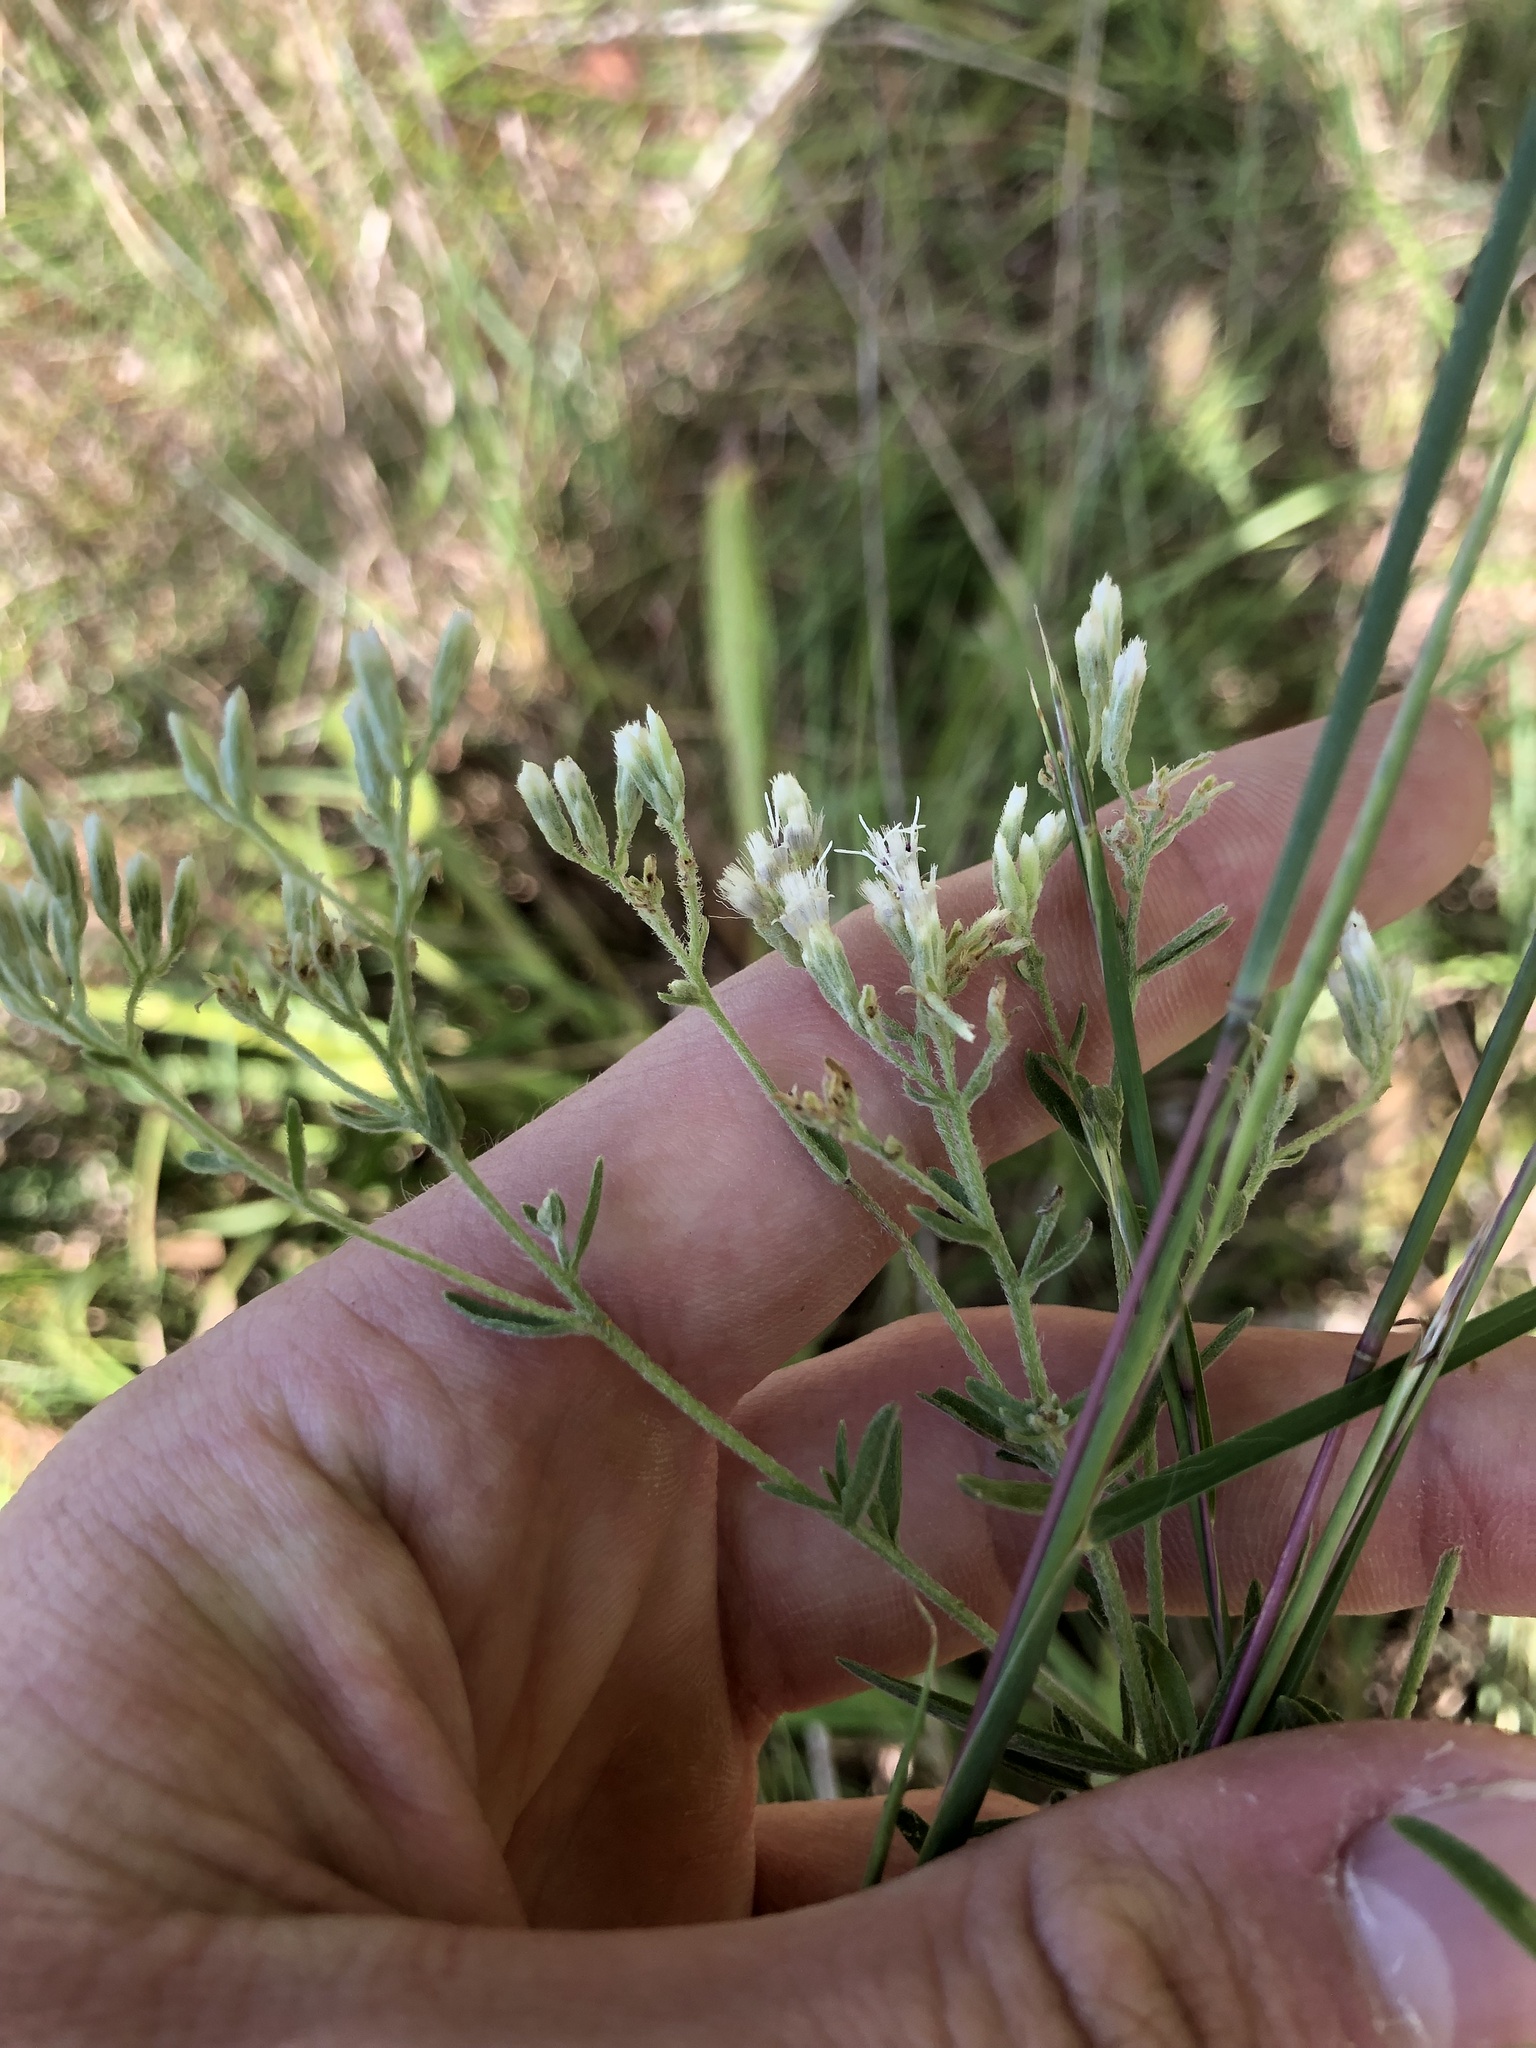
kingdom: Plantae
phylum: Tracheophyta
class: Magnoliopsida
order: Asterales
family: Asteraceae
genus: Eupatorium
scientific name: Eupatorium altissimum
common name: Tall thoroughwort
